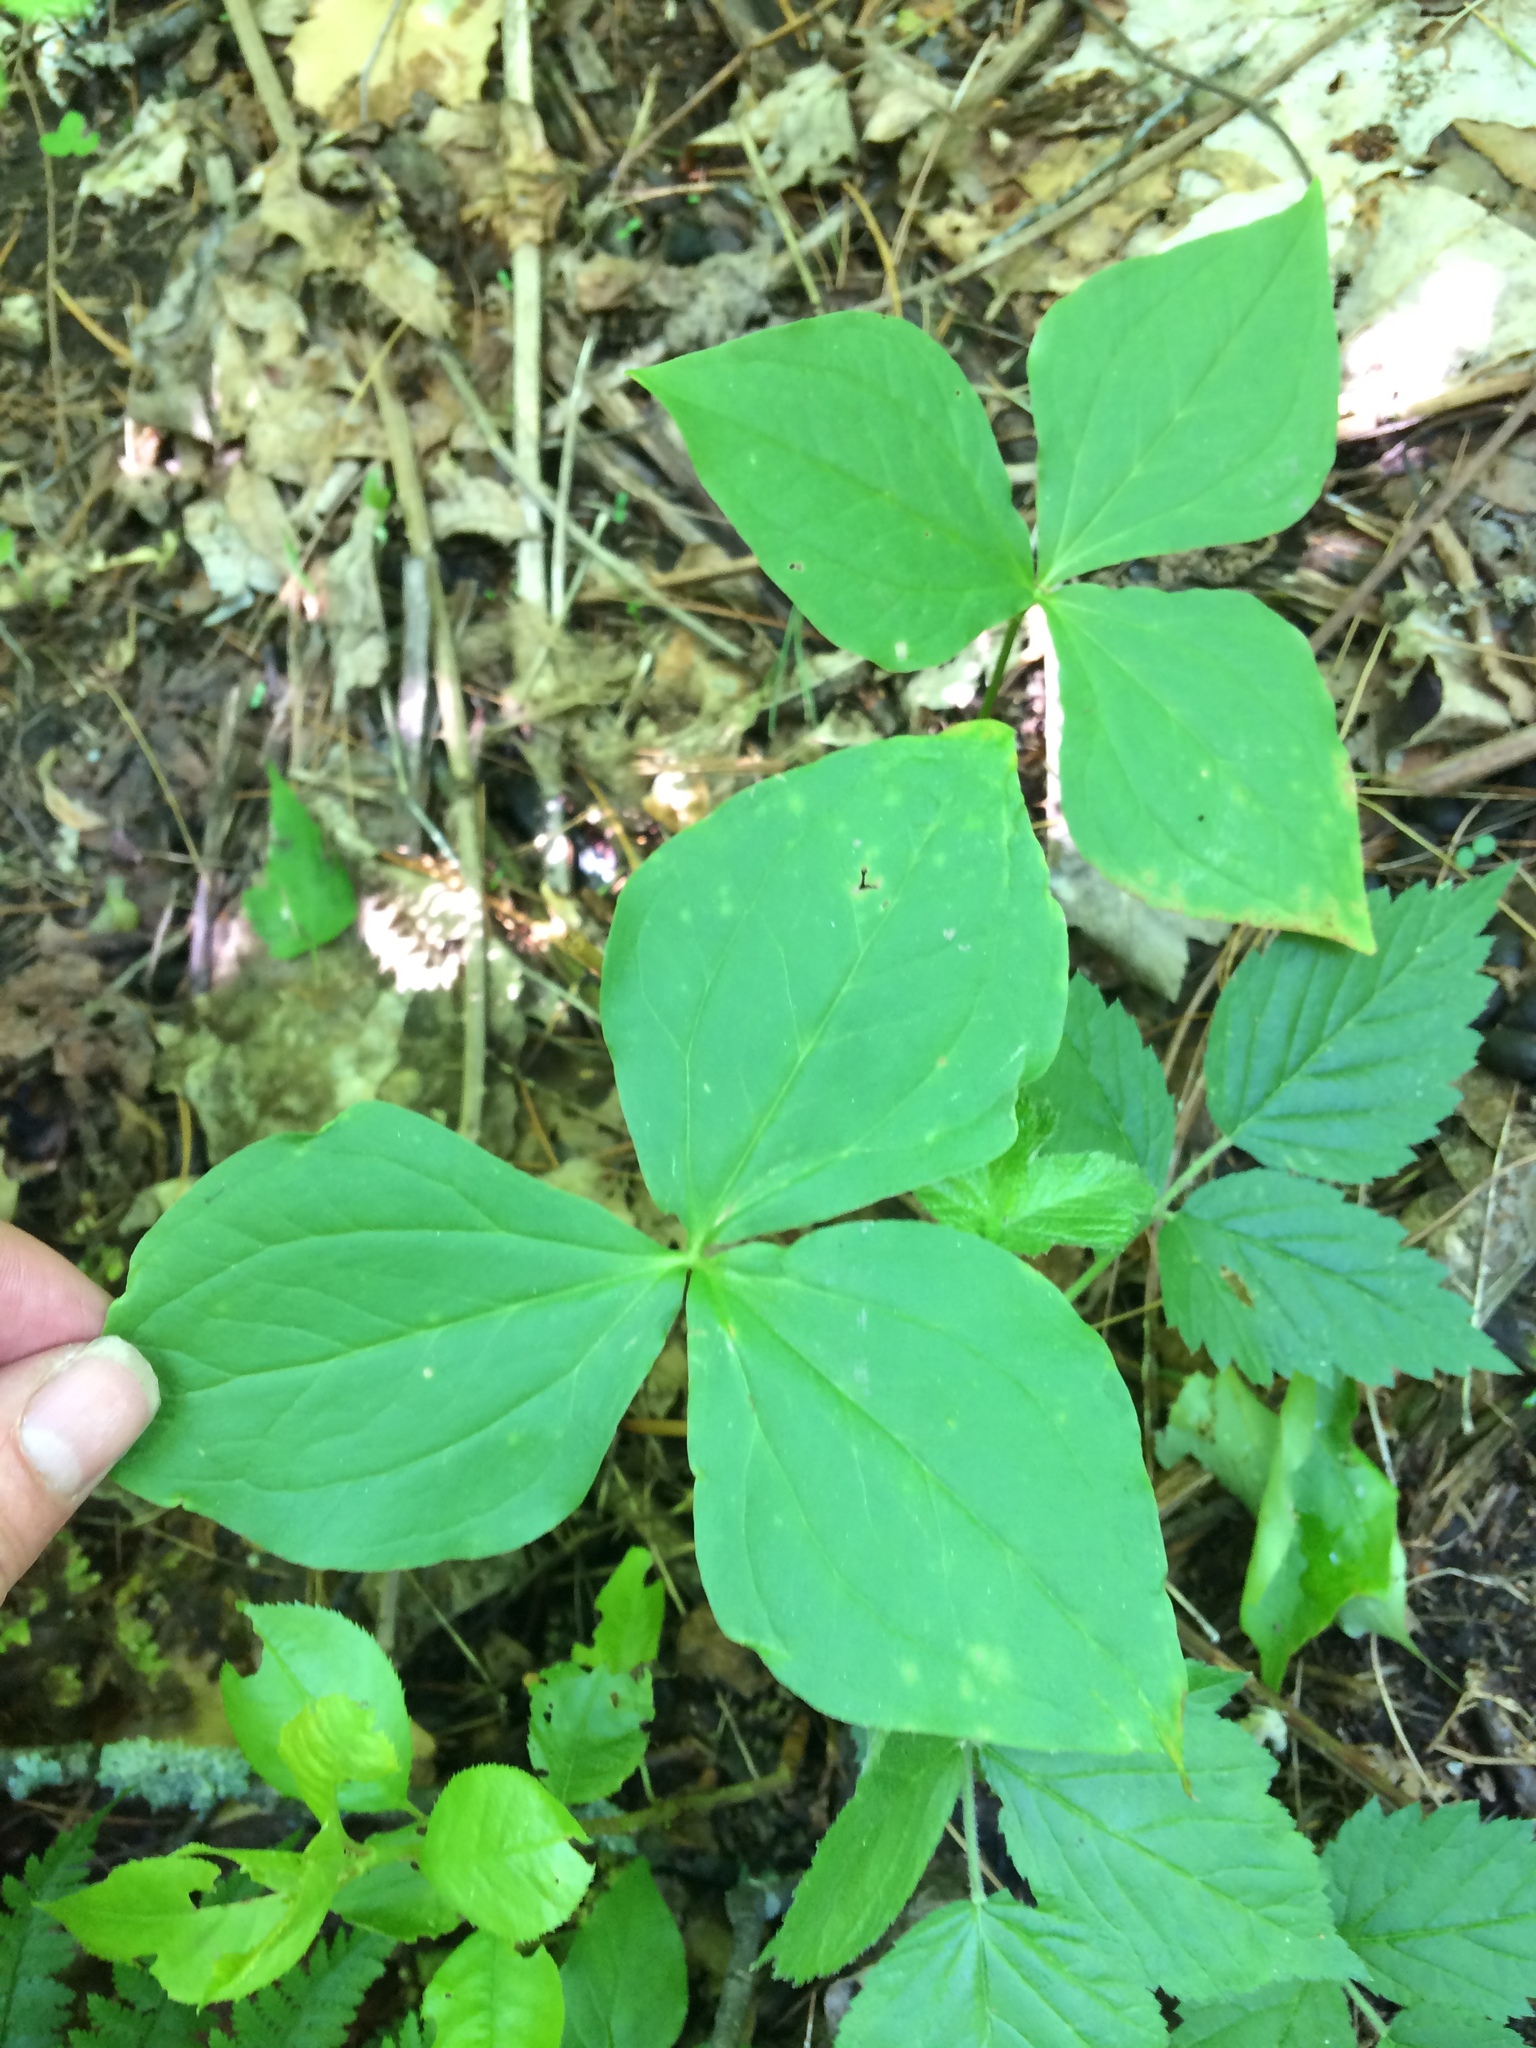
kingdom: Plantae
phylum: Tracheophyta
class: Liliopsida
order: Liliales
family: Melanthiaceae
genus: Trillium
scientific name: Trillium erectum
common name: Purple trillium
